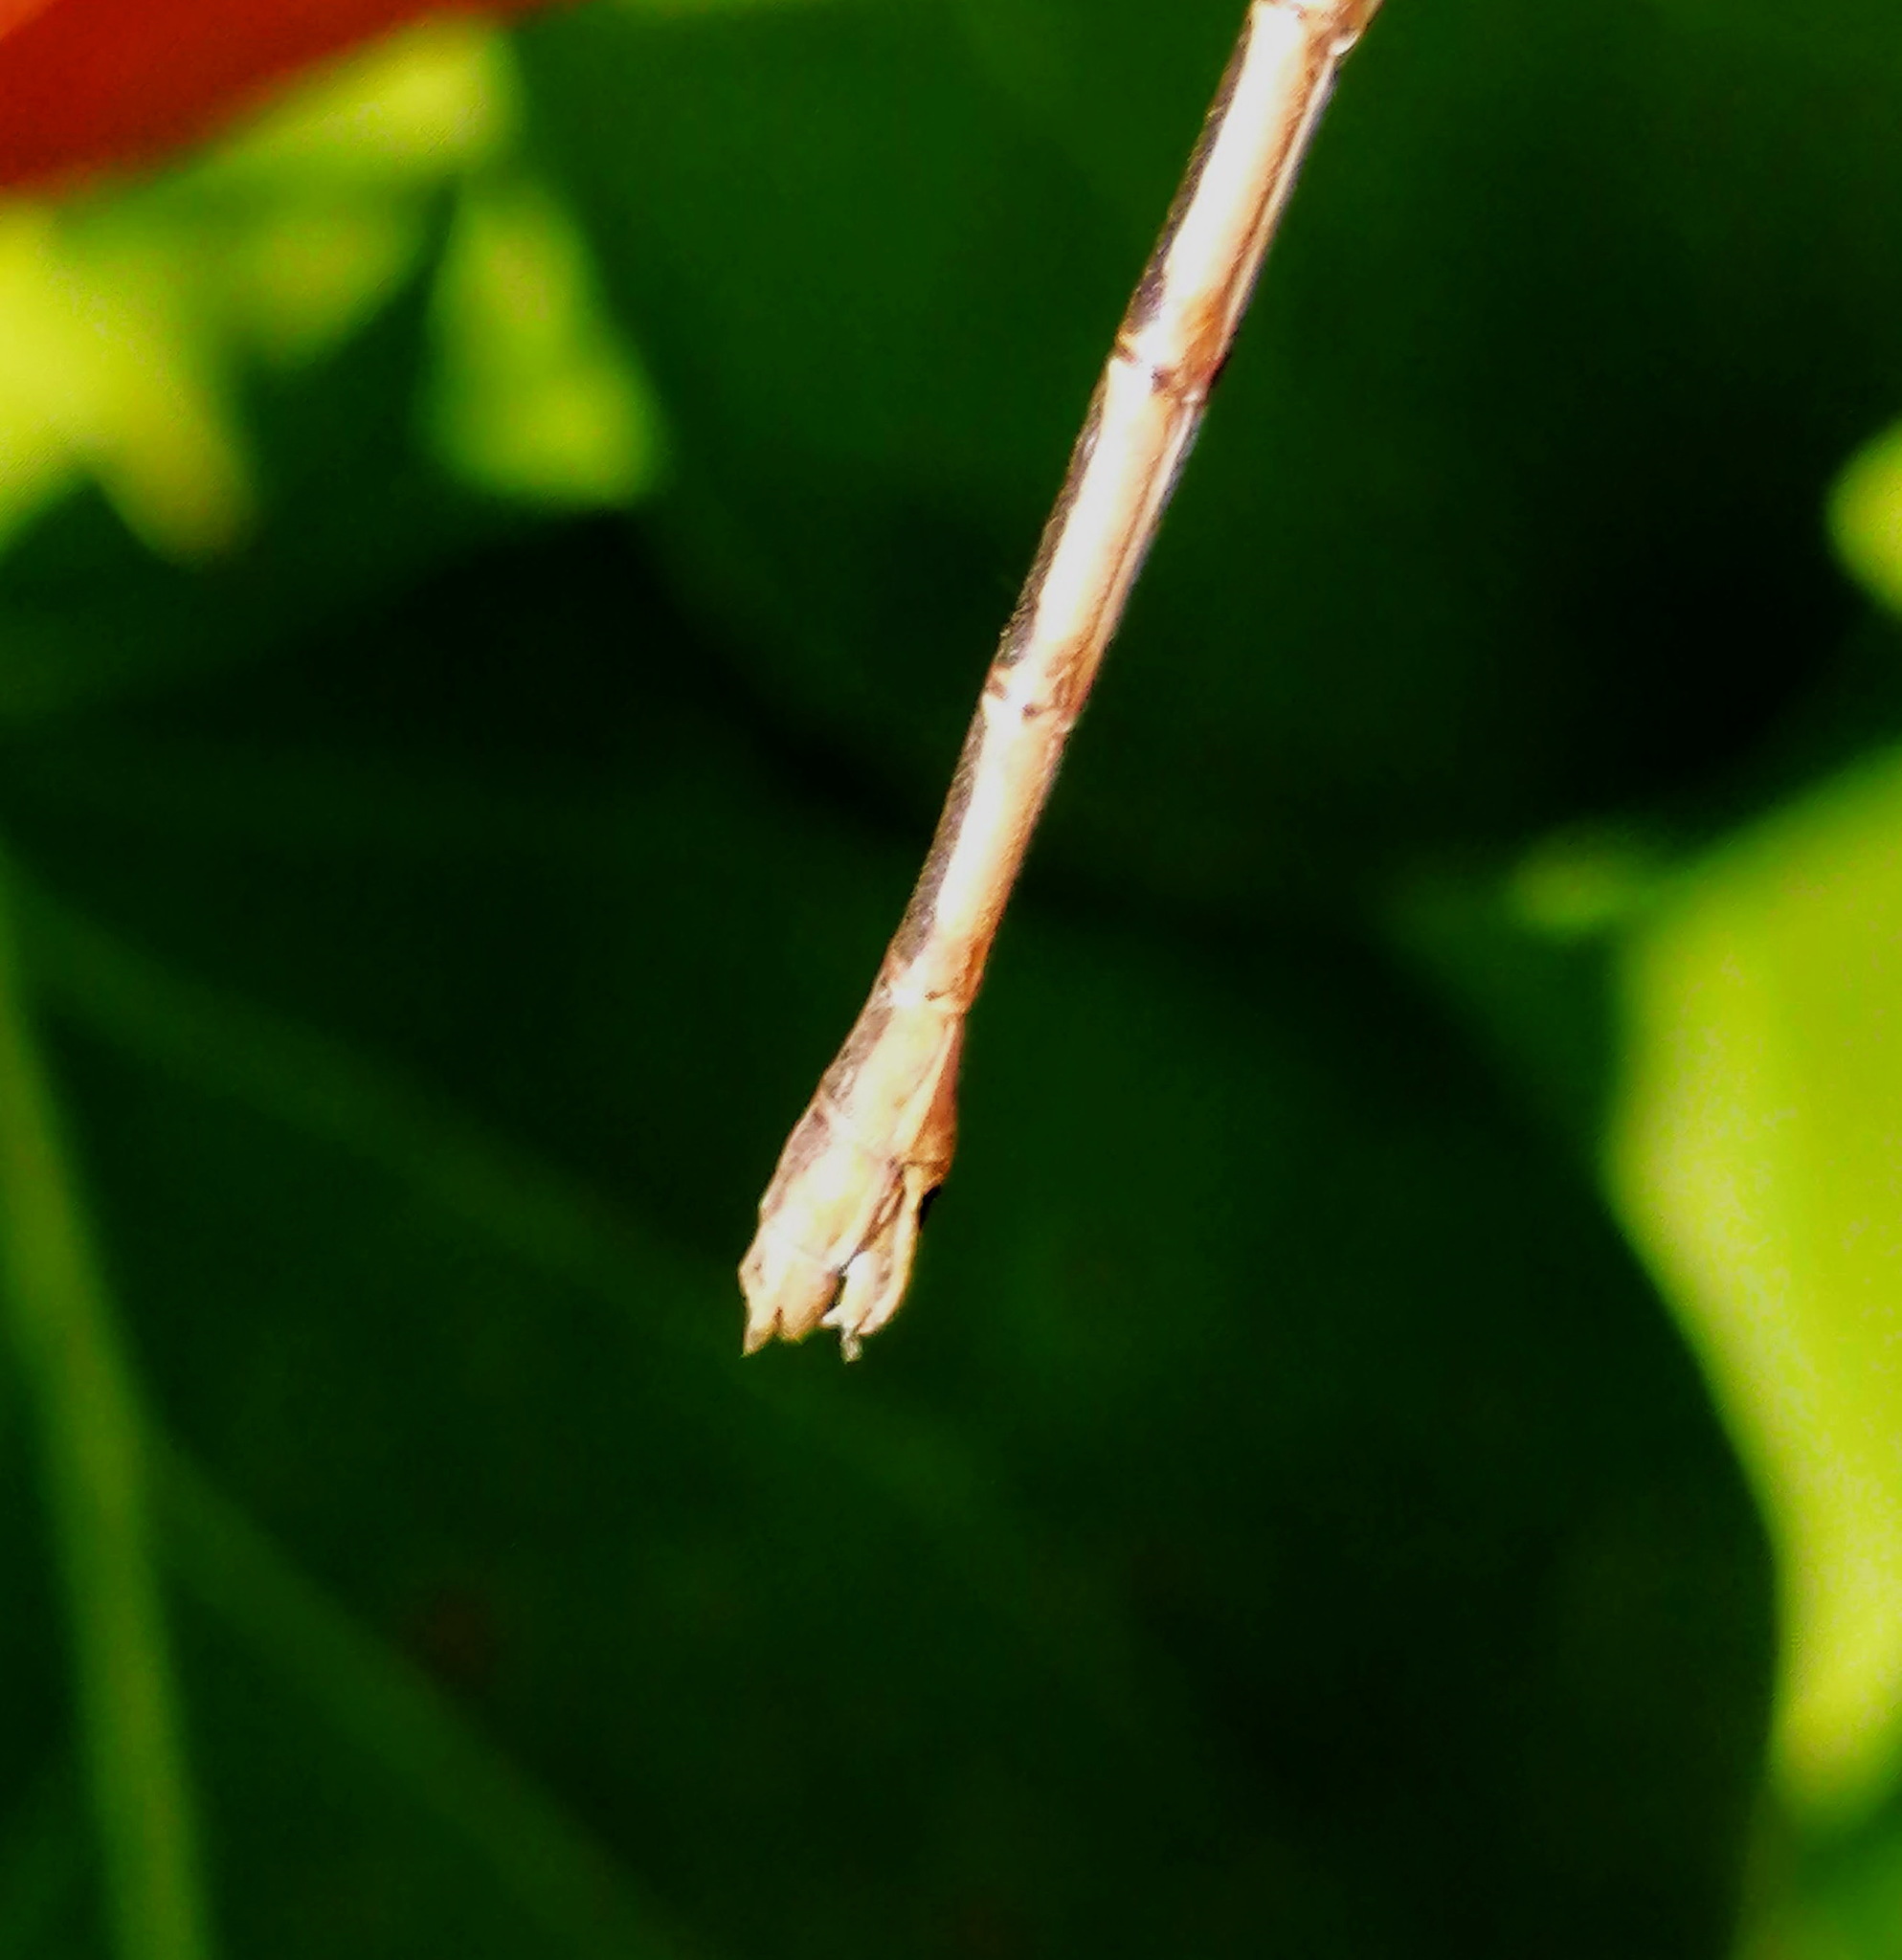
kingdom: Animalia
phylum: Arthropoda
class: Insecta
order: Odonata
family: Lestidae
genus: Lestes
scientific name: Lestes disjunctus
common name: Northern spreadwing
